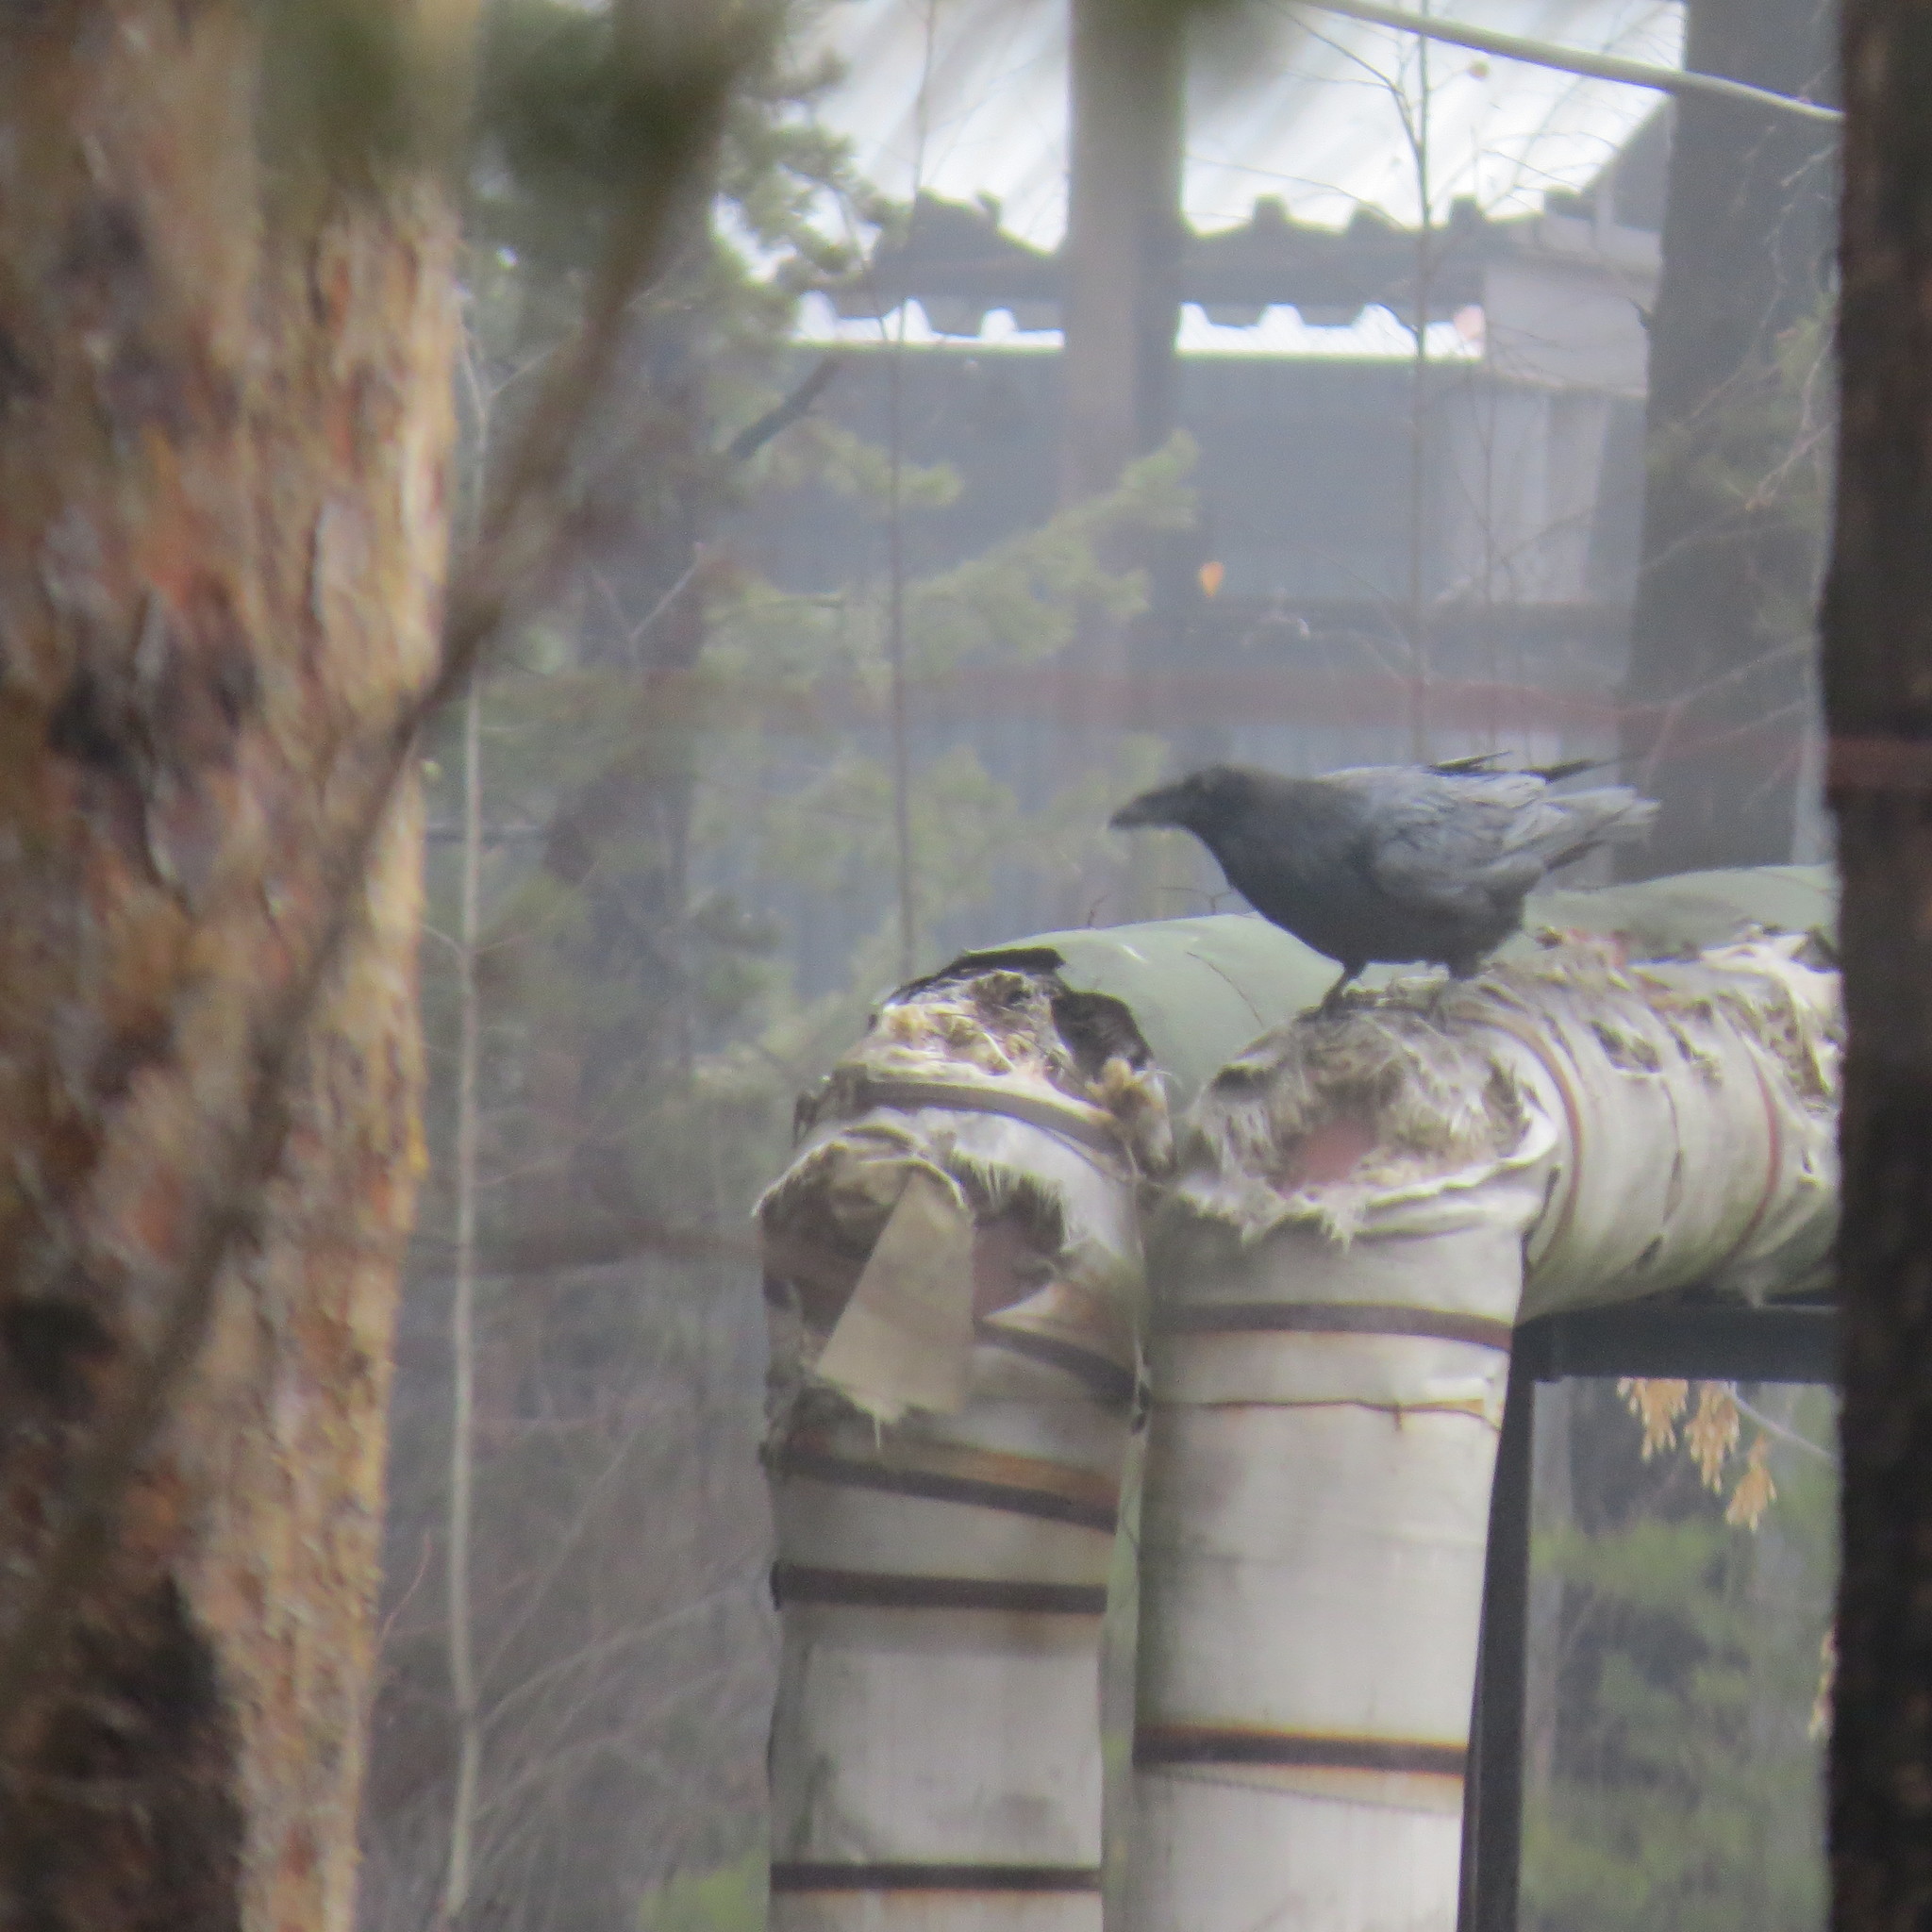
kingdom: Animalia
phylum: Chordata
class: Aves
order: Passeriformes
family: Corvidae
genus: Corvus
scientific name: Corvus corax
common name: Common raven
